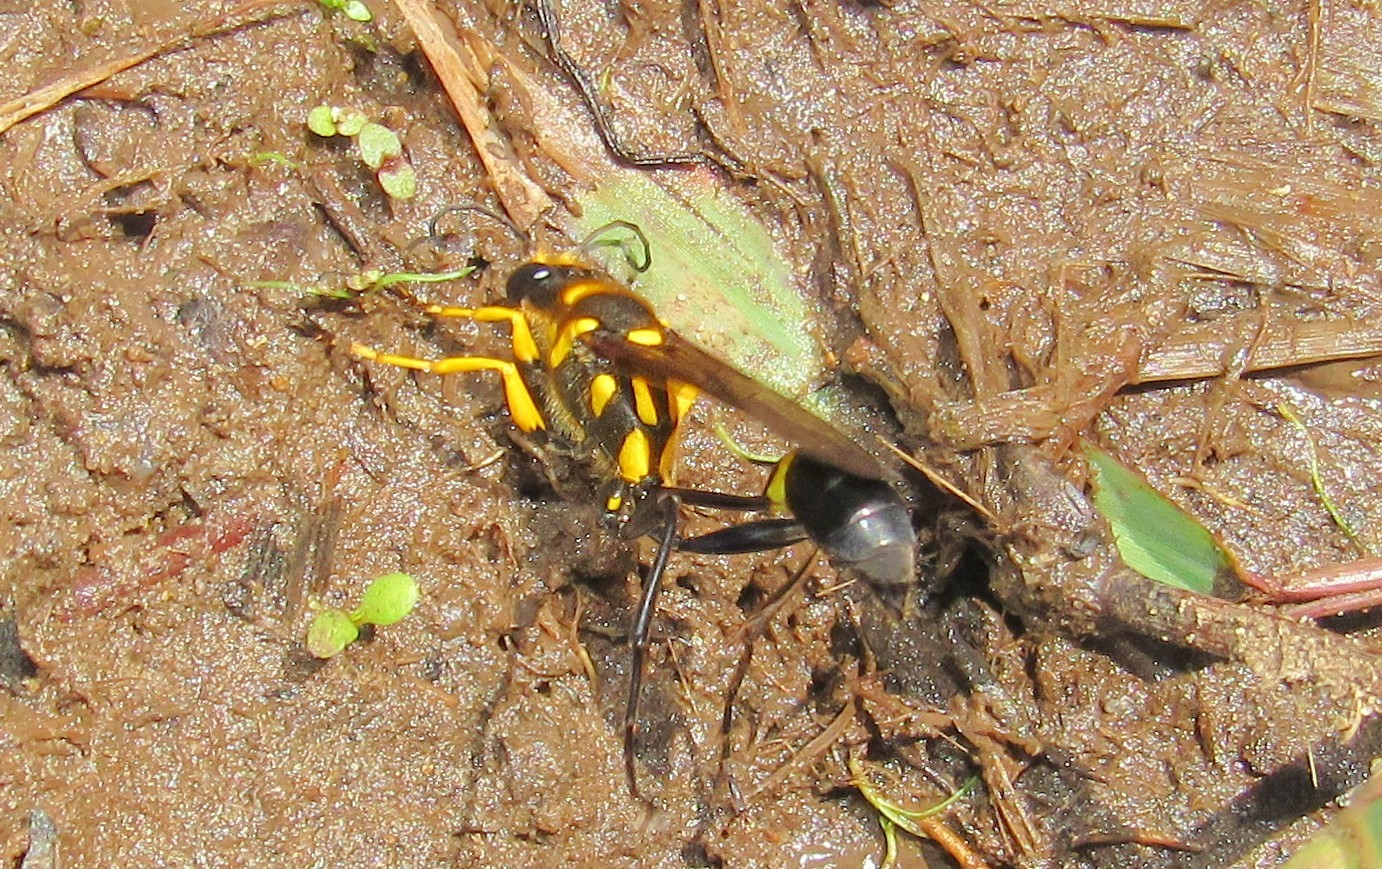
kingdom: Animalia
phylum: Arthropoda
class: Insecta
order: Hymenoptera
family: Sphecidae
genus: Sceliphron
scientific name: Sceliphron fistularium
